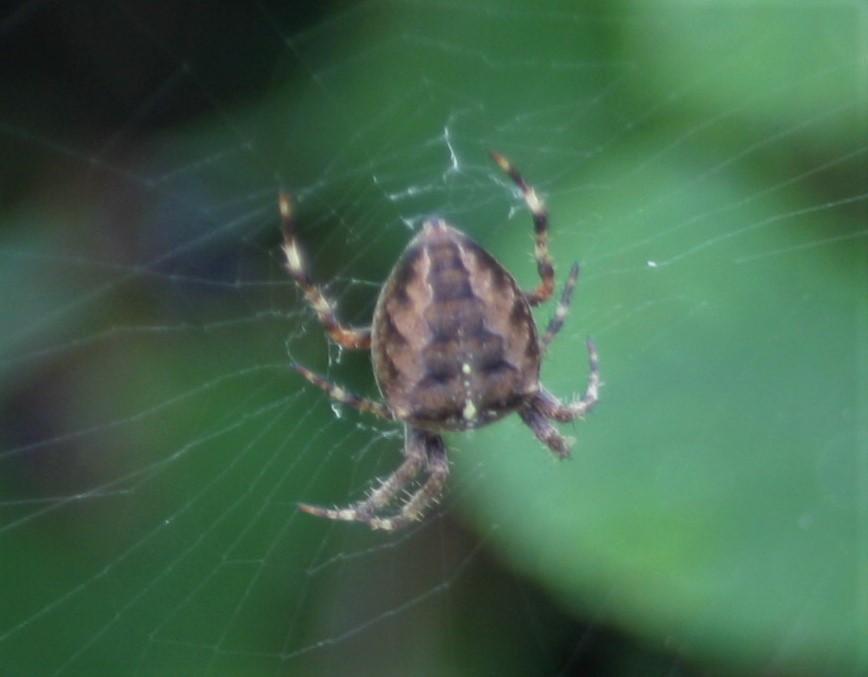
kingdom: Animalia
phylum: Arthropoda
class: Arachnida
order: Araneae
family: Araneidae
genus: Araneus
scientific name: Araneus diadematus
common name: Cross orbweaver
